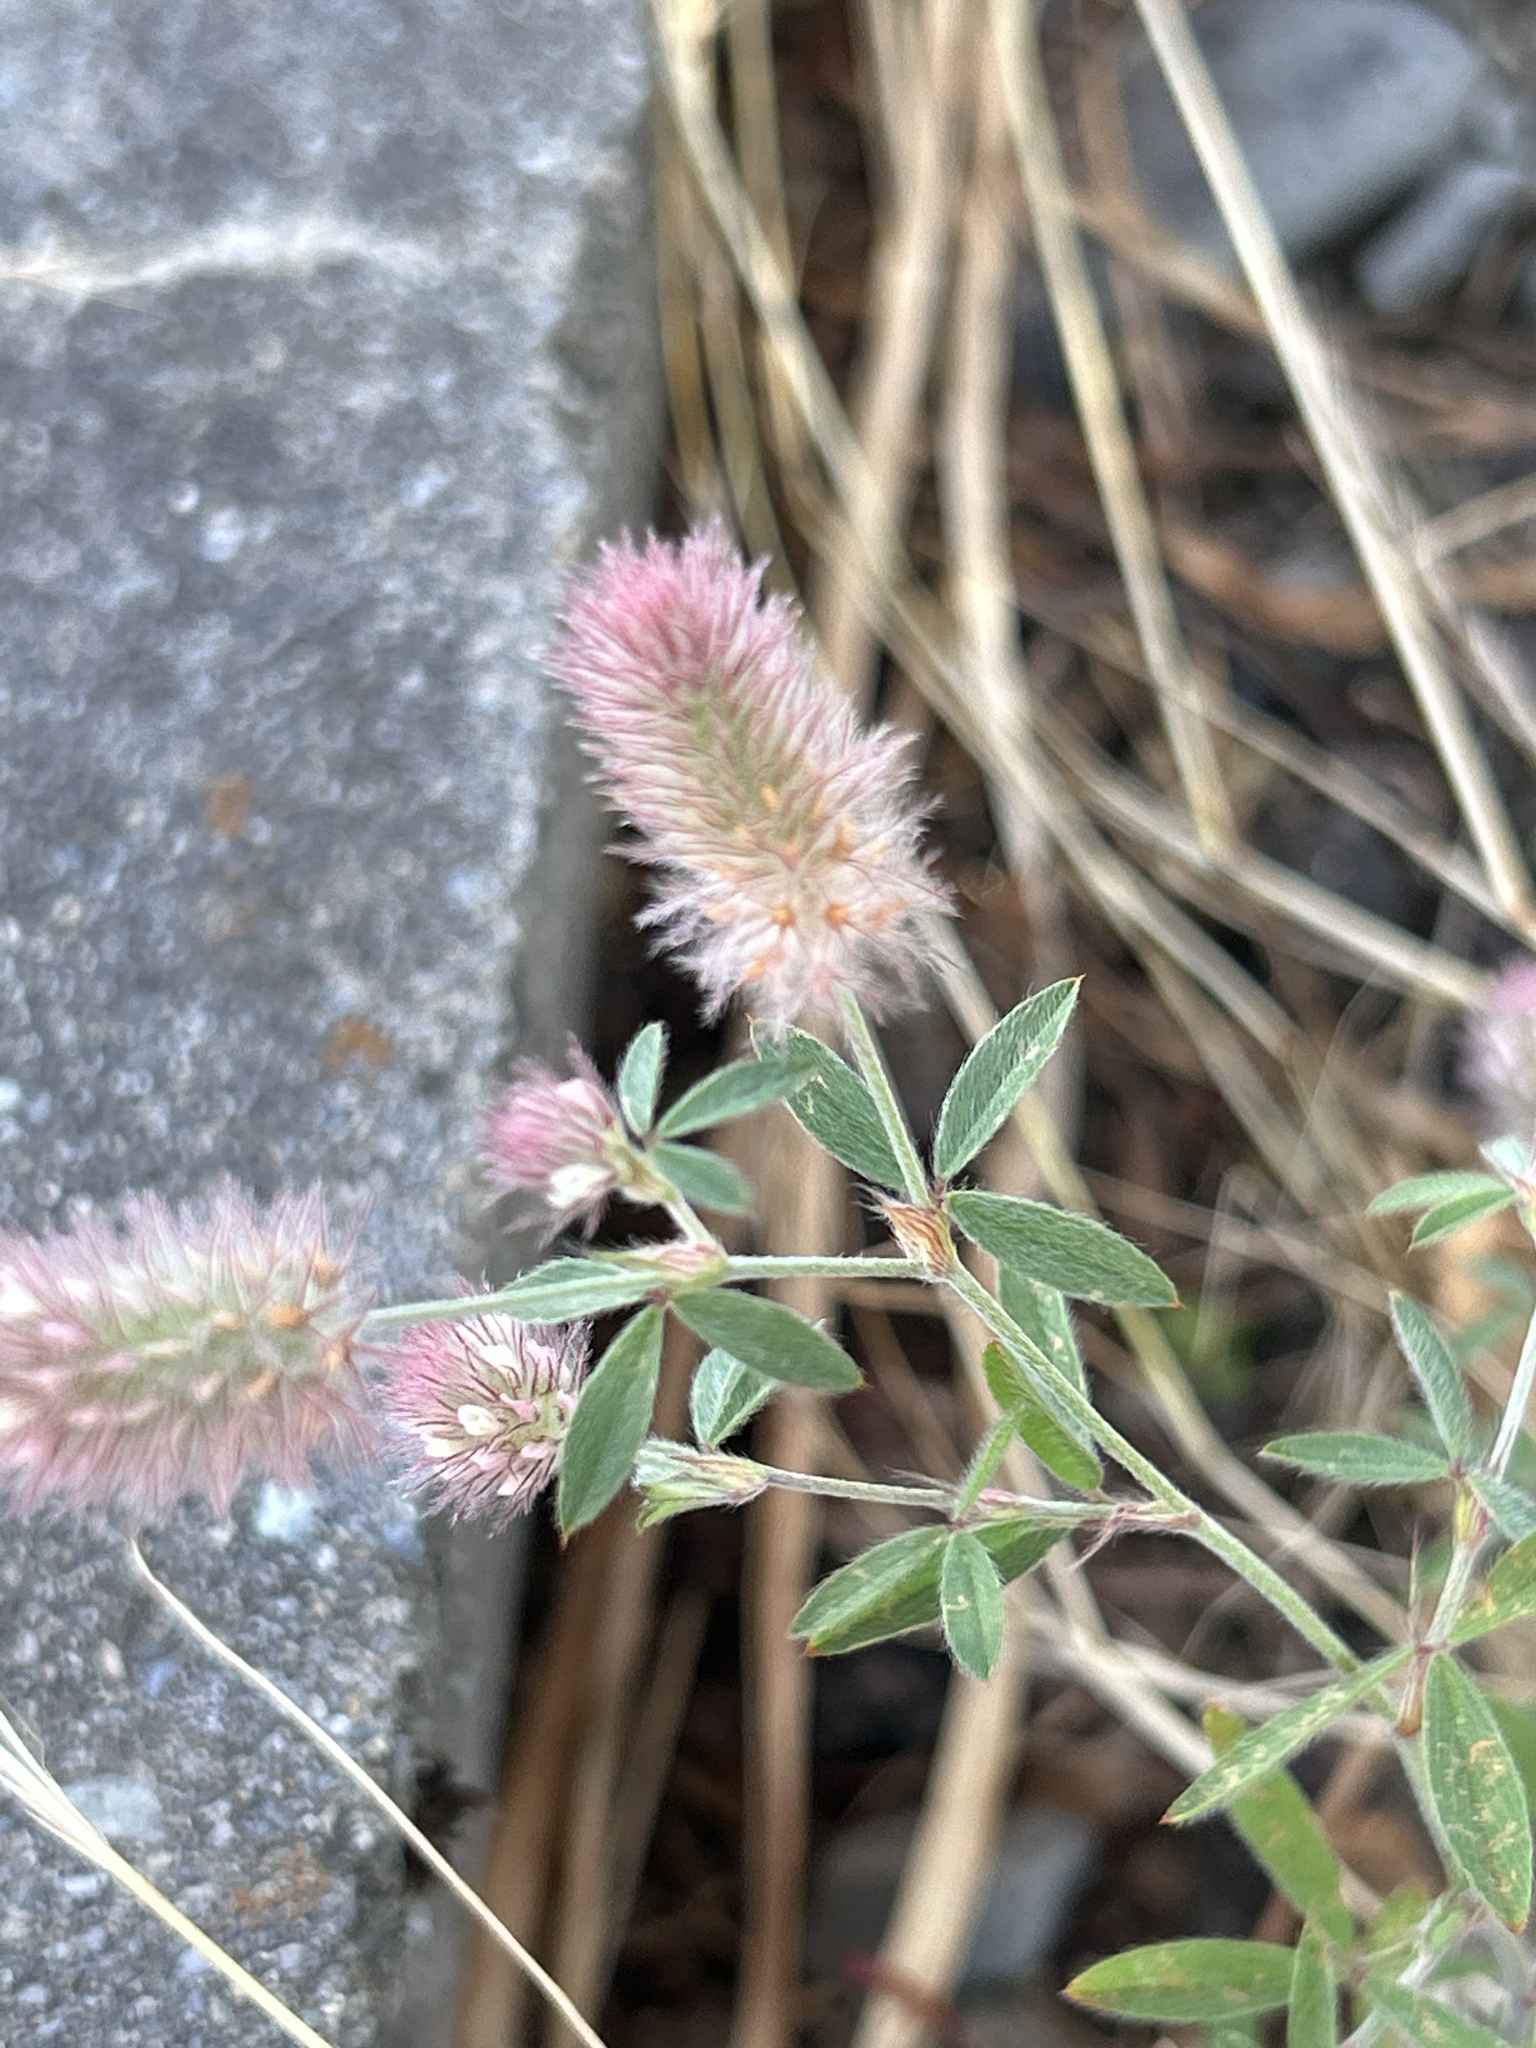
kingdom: Plantae
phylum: Tracheophyta
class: Magnoliopsida
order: Fabales
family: Fabaceae
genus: Trifolium
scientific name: Trifolium arvense
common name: Hare's-foot clover
